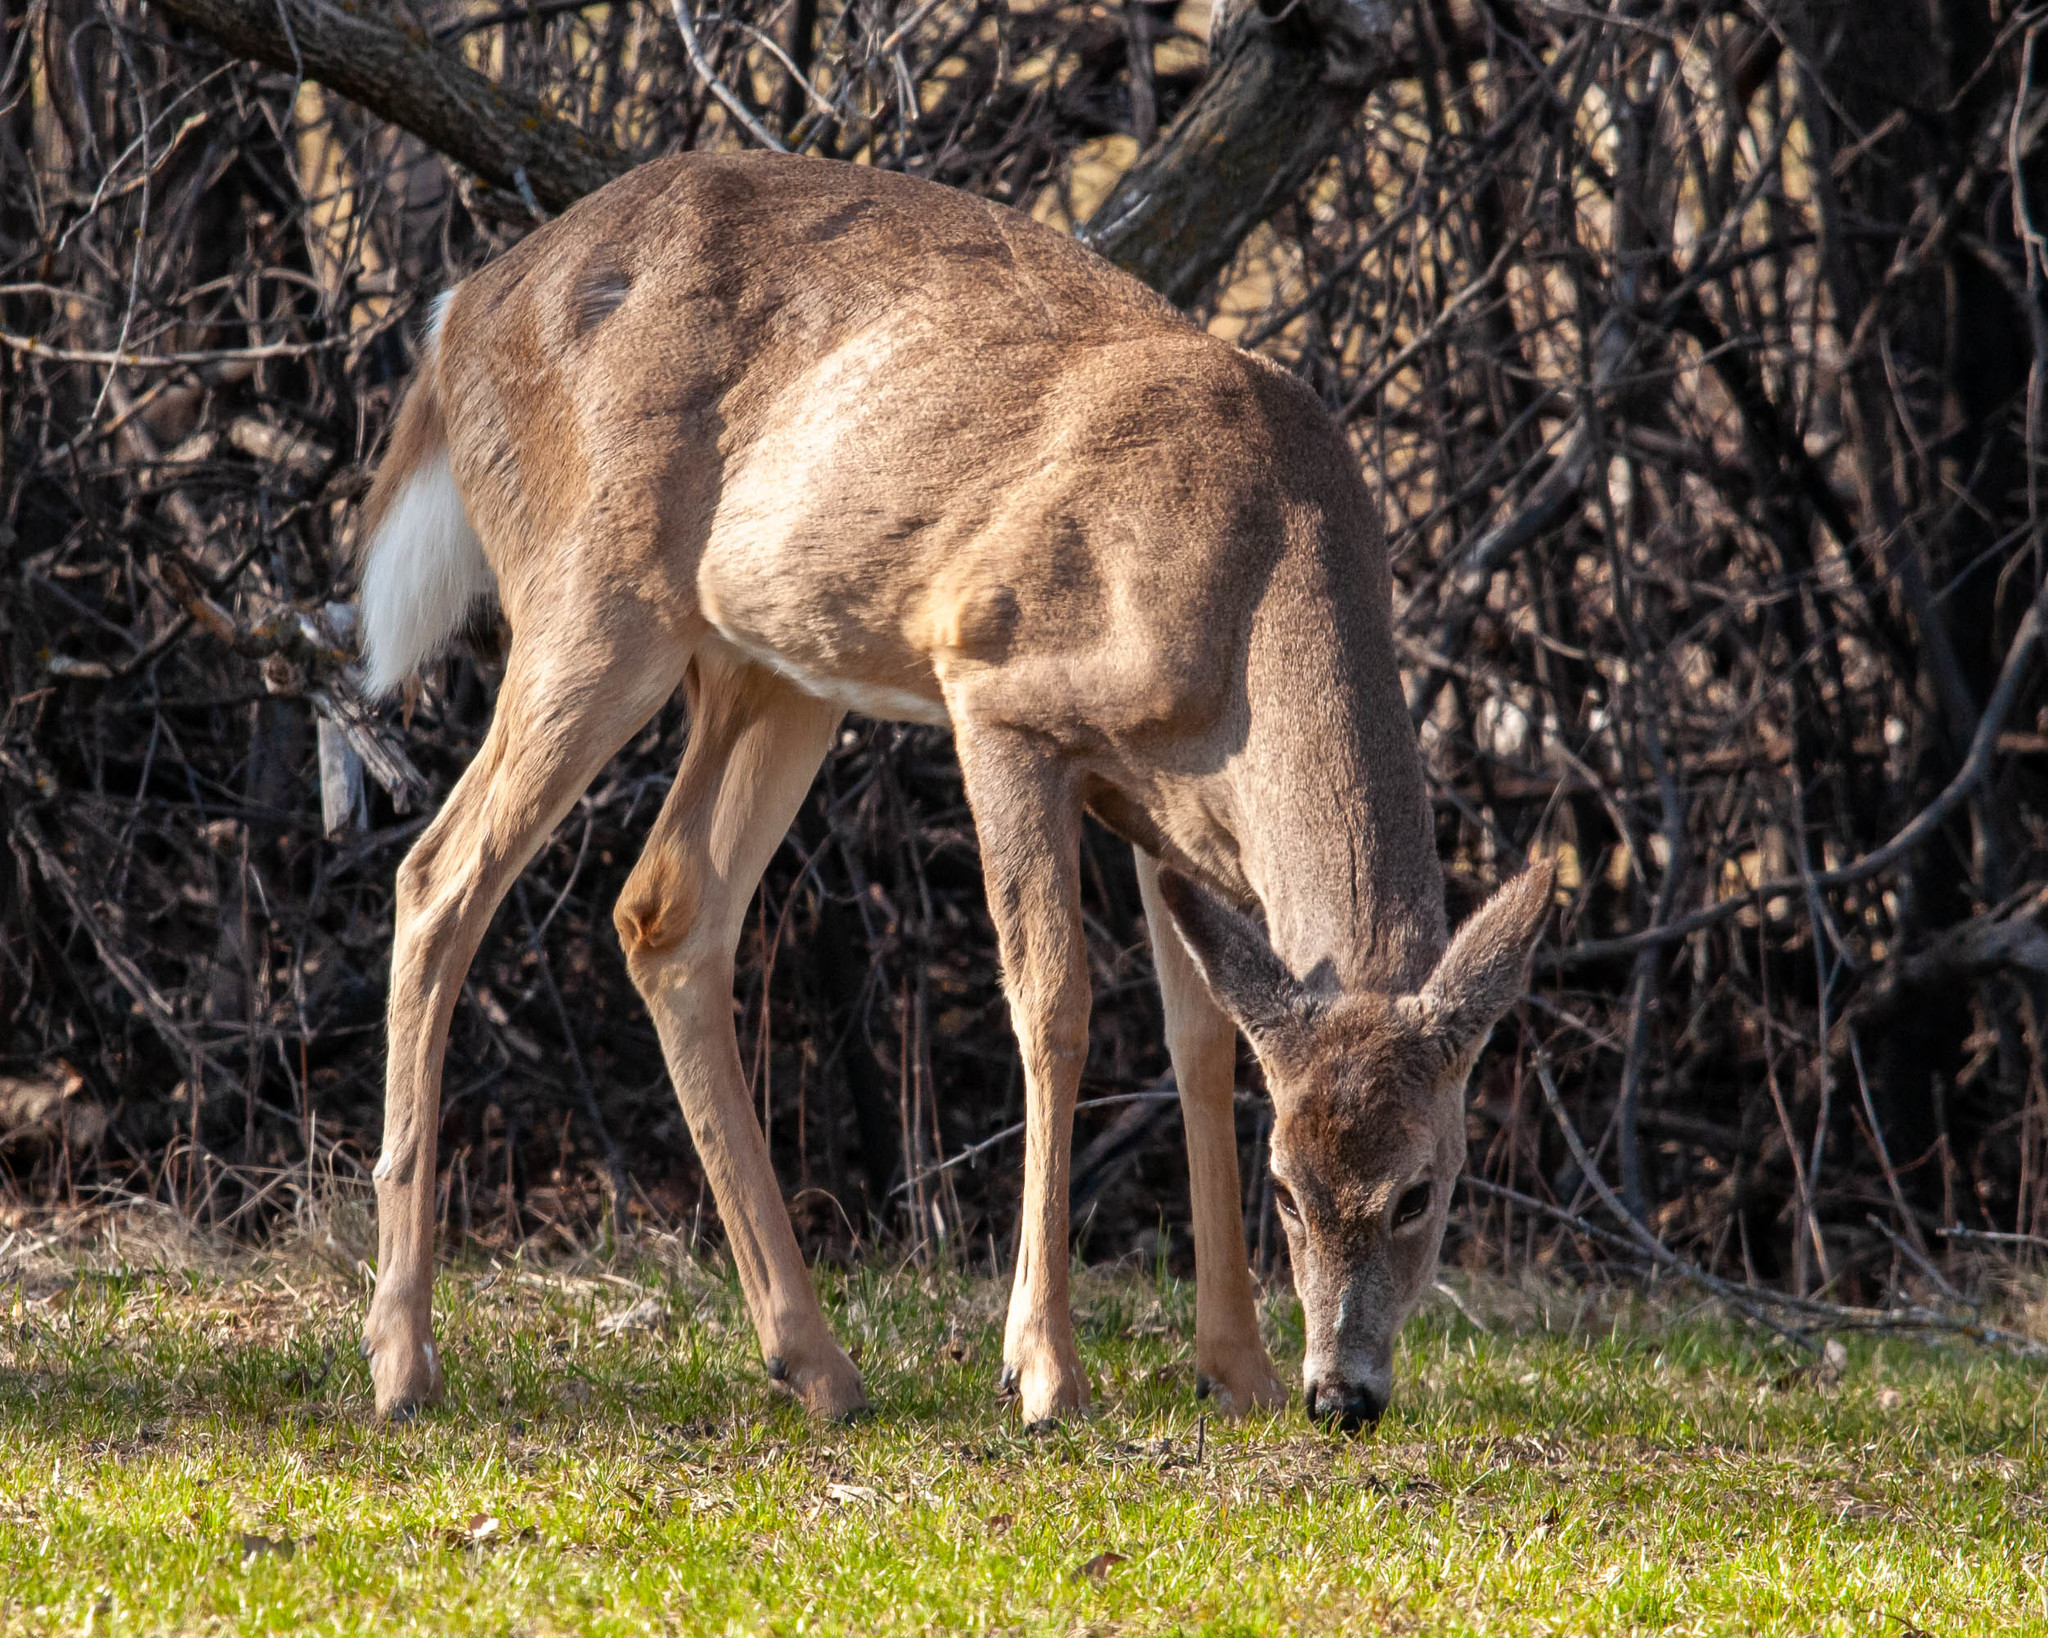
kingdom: Animalia
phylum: Chordata
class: Mammalia
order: Artiodactyla
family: Cervidae
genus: Odocoileus
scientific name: Odocoileus virginianus
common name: White-tailed deer
